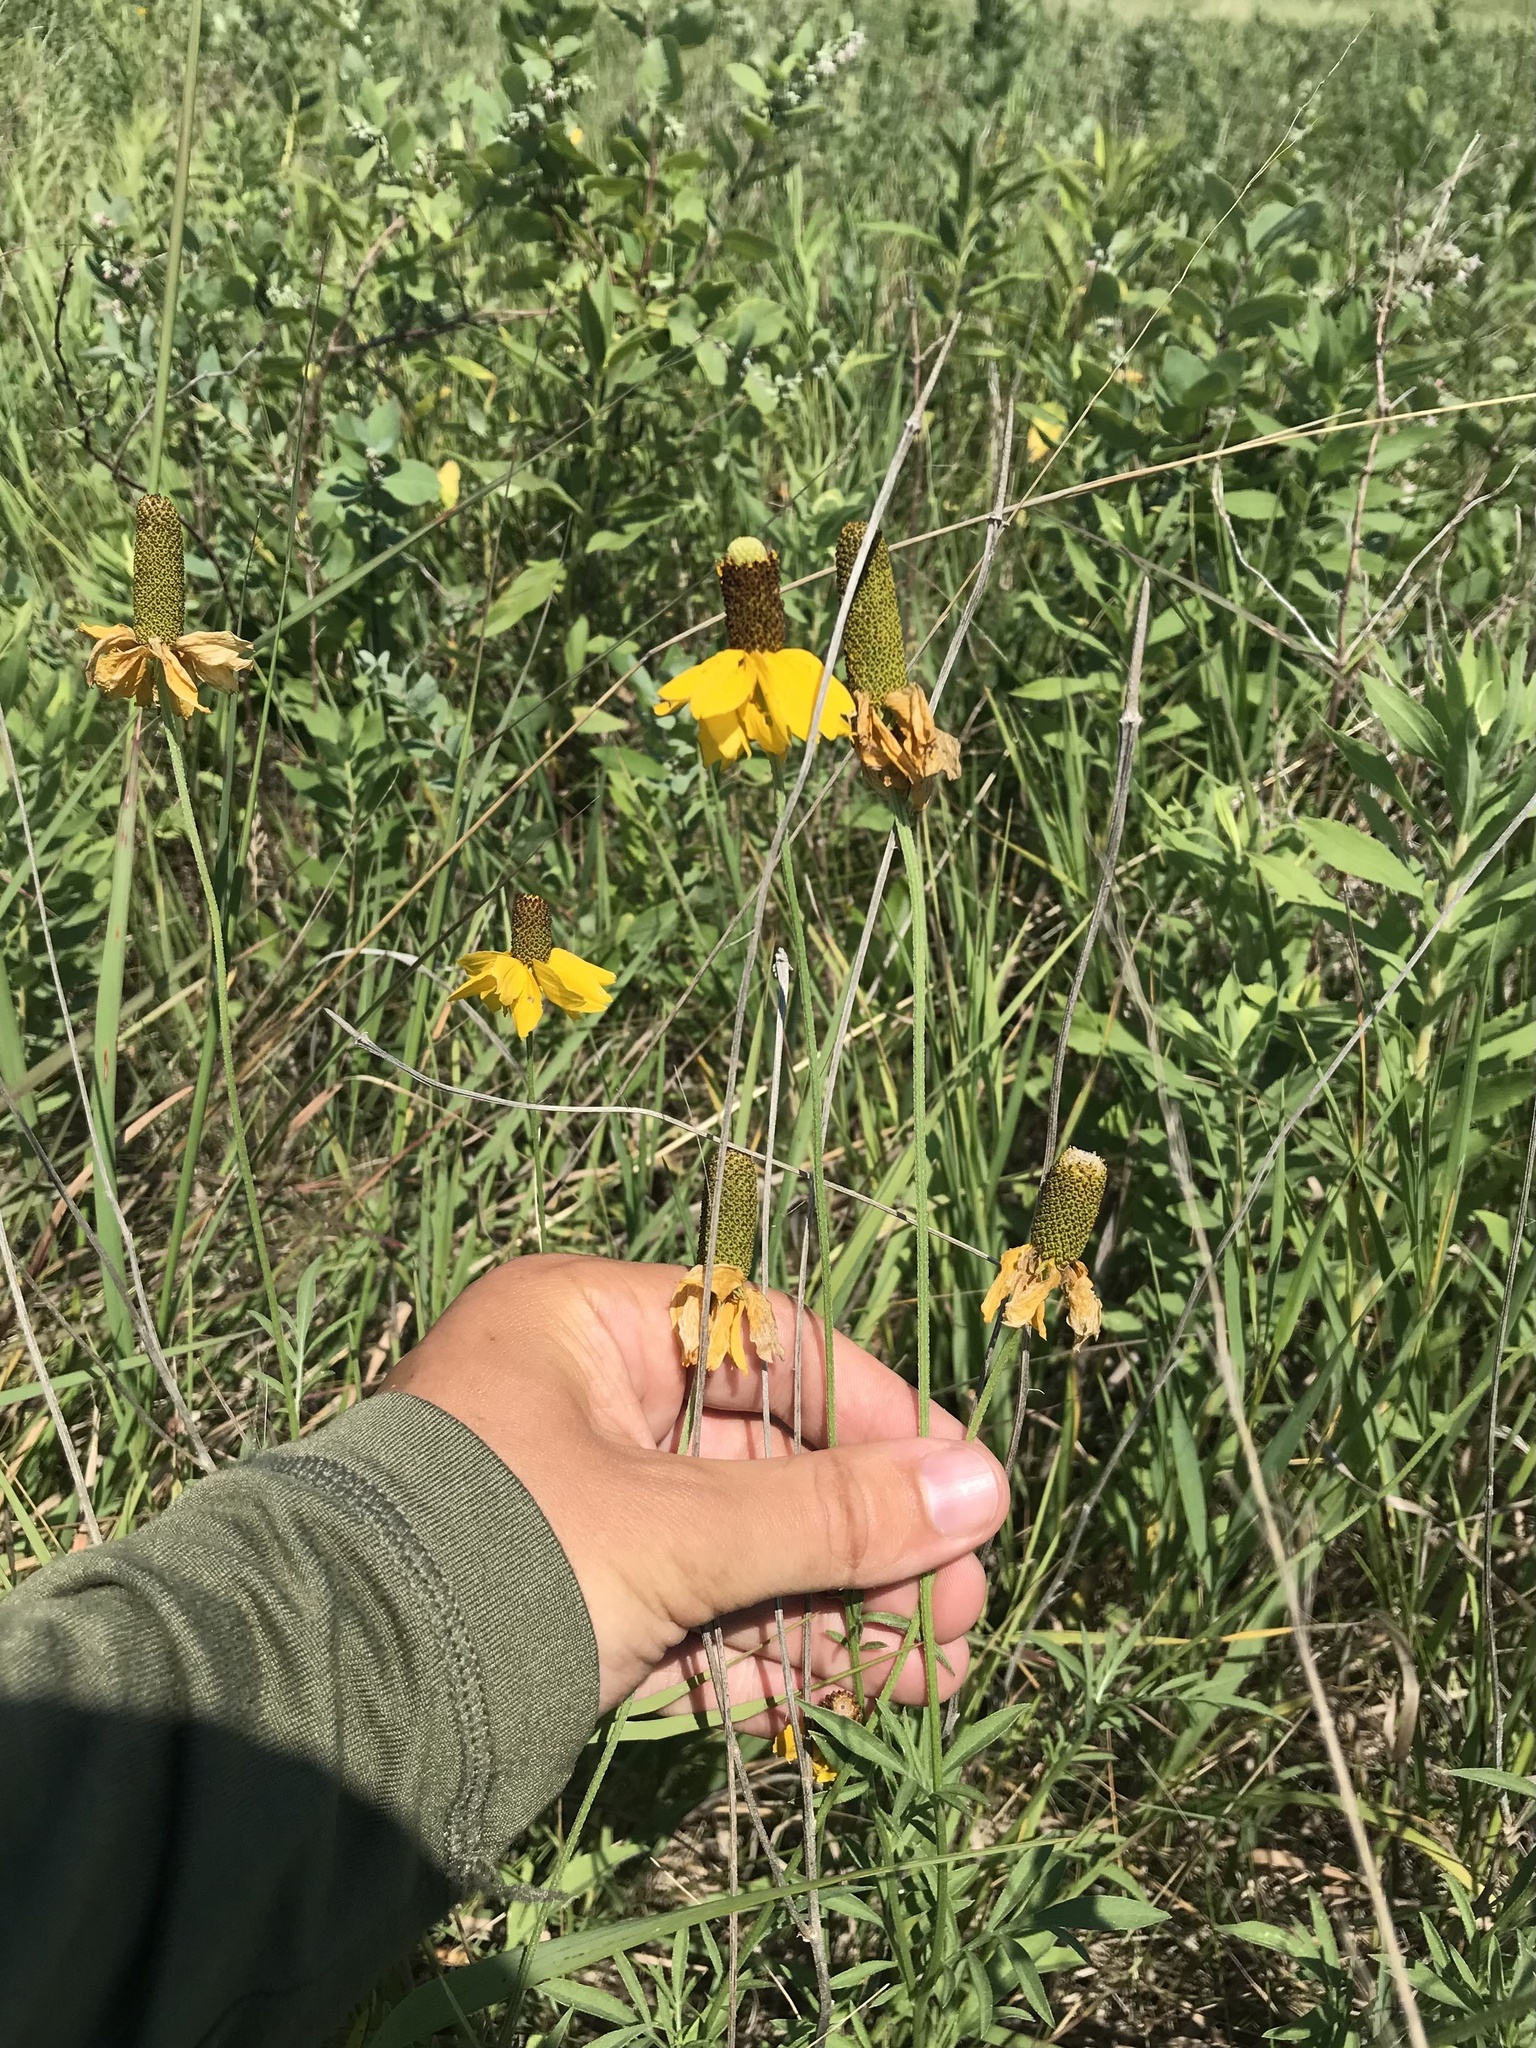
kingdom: Plantae
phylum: Tracheophyta
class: Magnoliopsida
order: Asterales
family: Asteraceae
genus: Ratibida
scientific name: Ratibida columnifera
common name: Prairie coneflower
